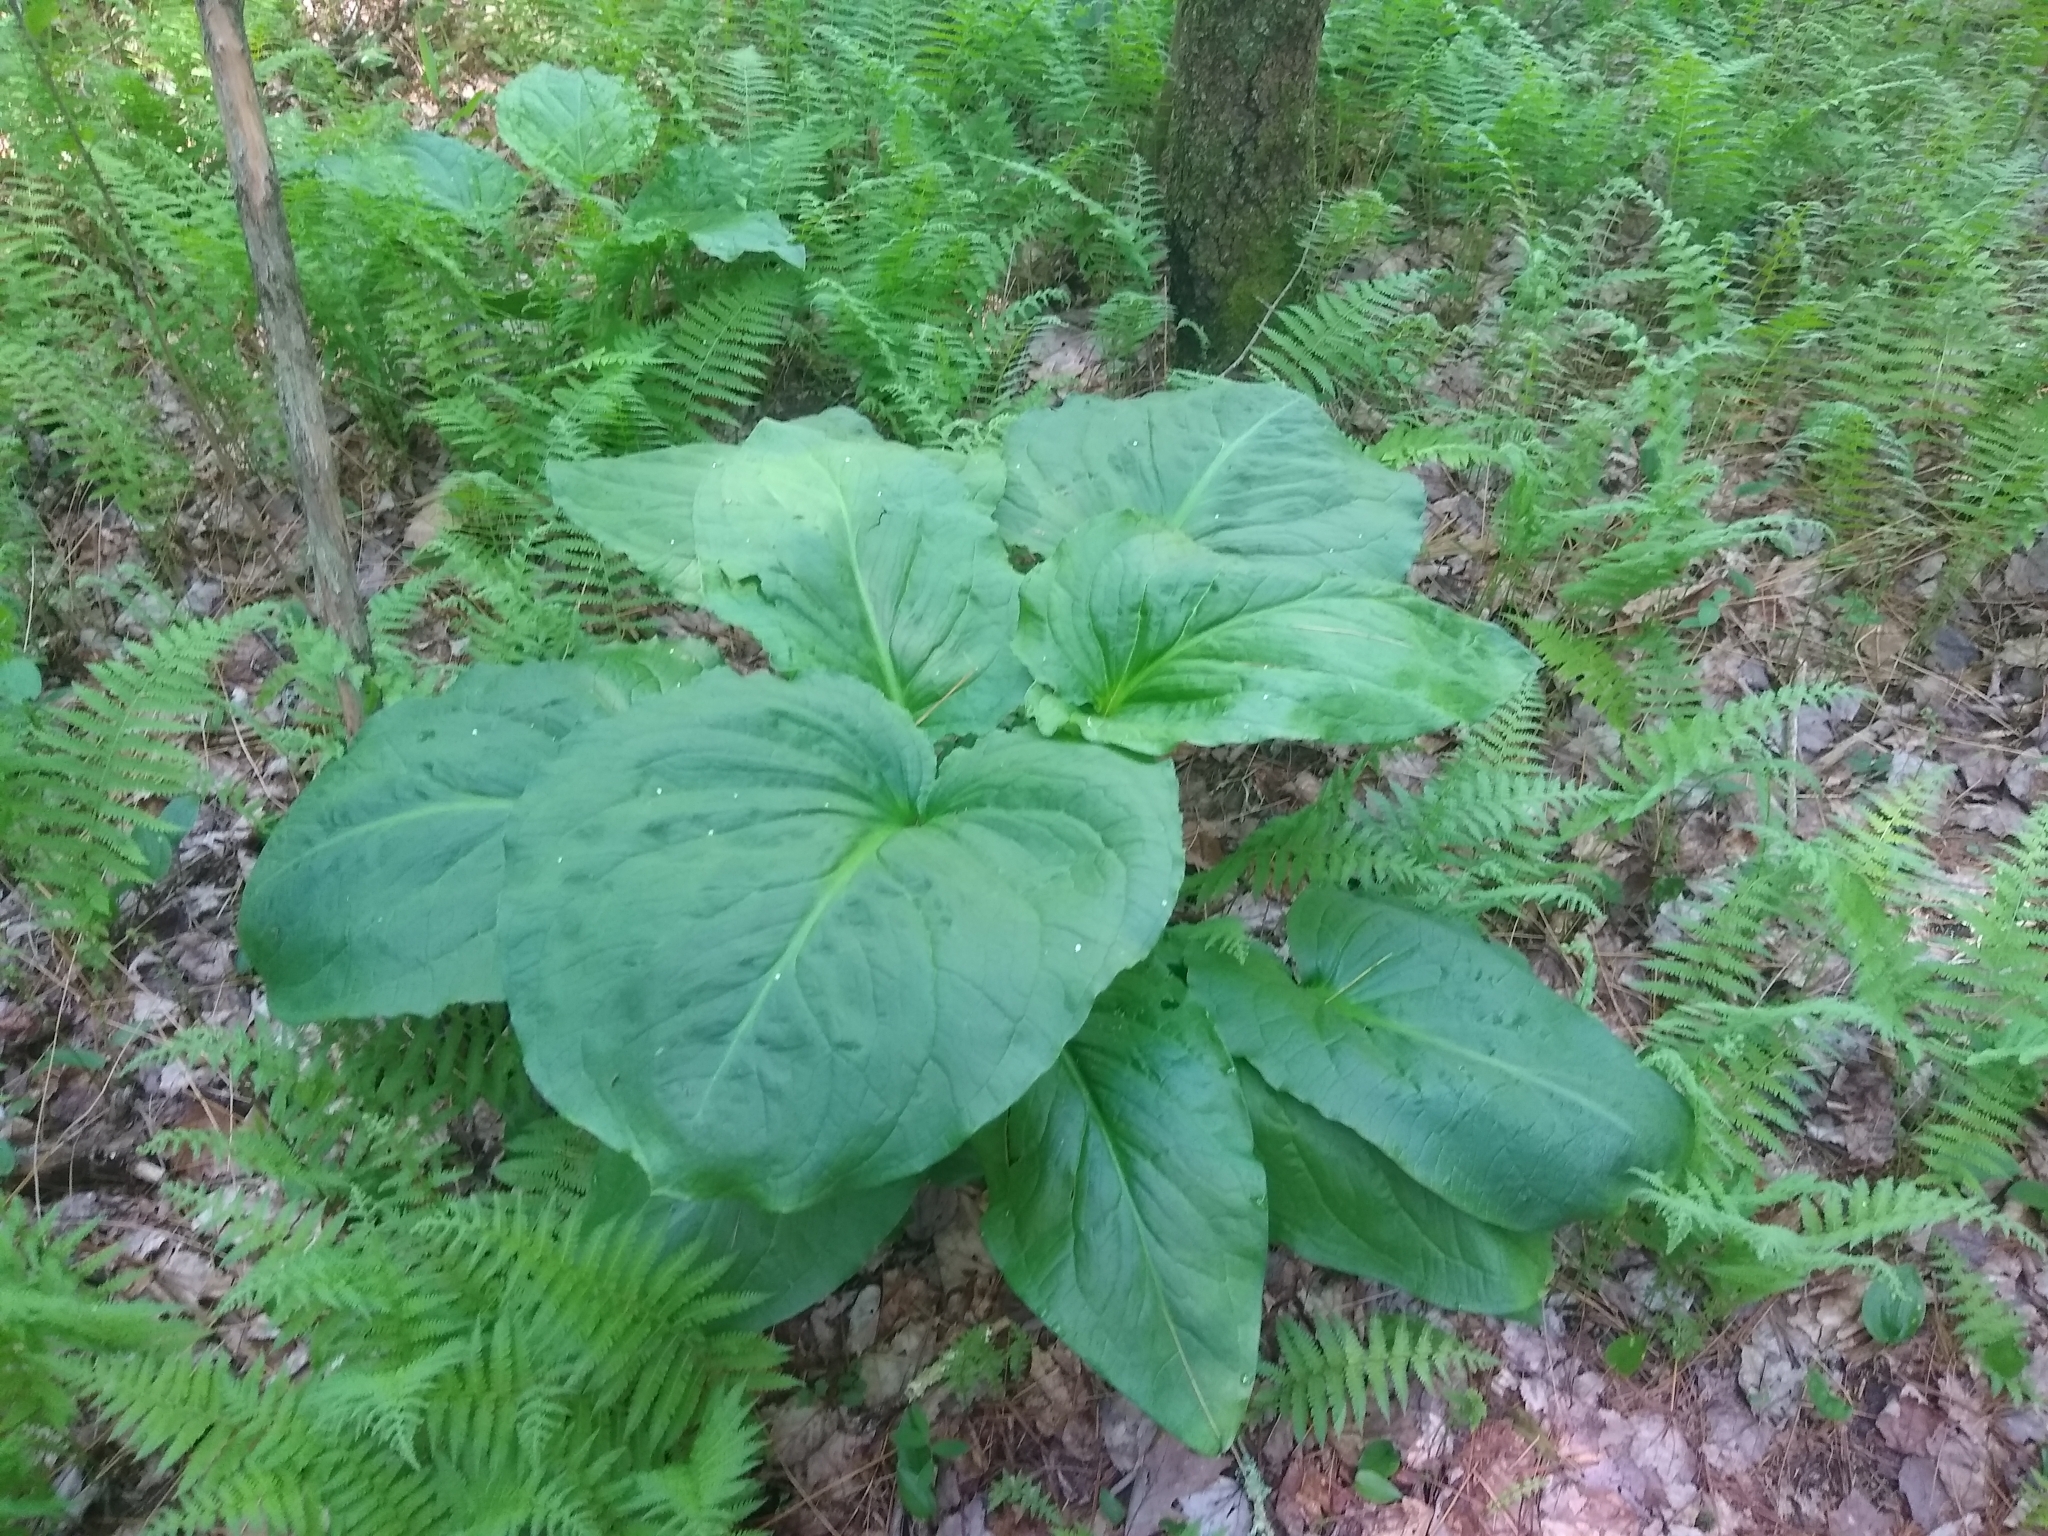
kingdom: Plantae
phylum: Tracheophyta
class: Liliopsida
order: Alismatales
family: Araceae
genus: Symplocarpus
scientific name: Symplocarpus foetidus
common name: Eastern skunk cabbage
